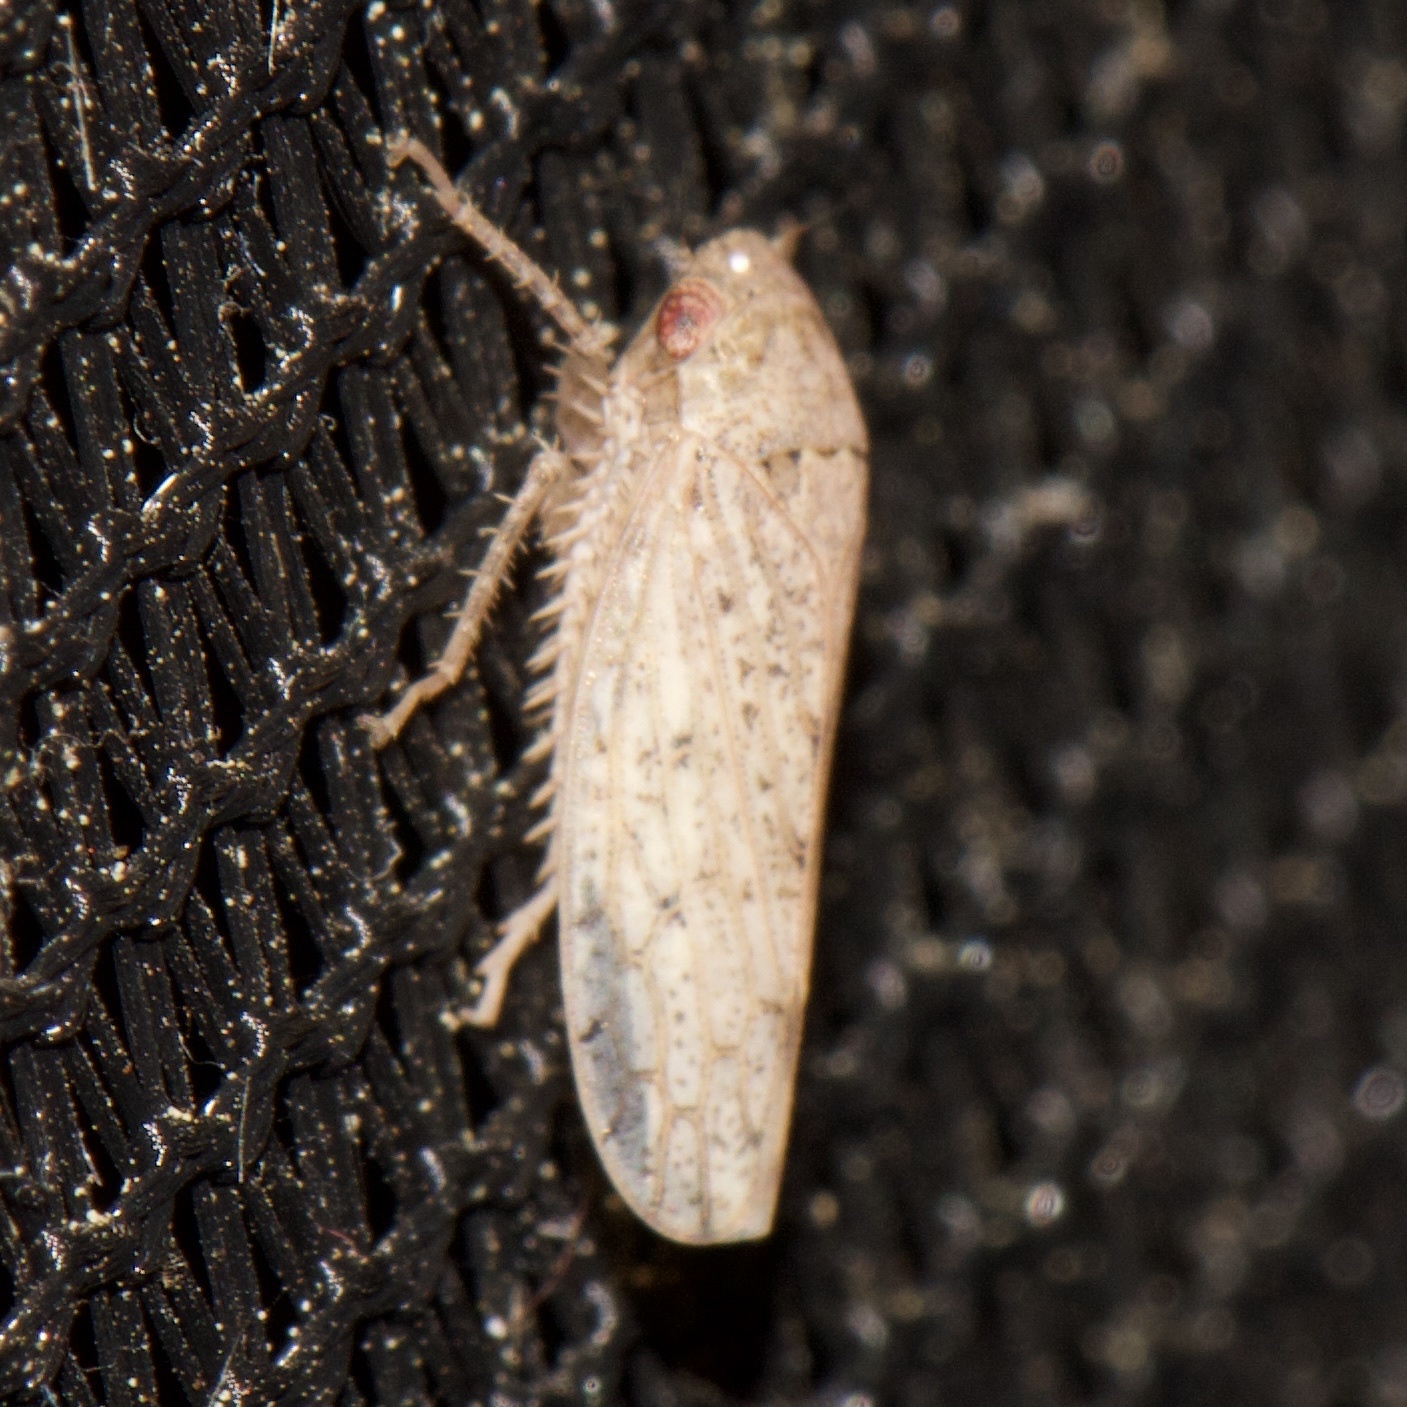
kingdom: Animalia
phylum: Arthropoda
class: Insecta
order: Hemiptera
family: Cicadellidae
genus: Curtara
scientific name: Curtara insularis
